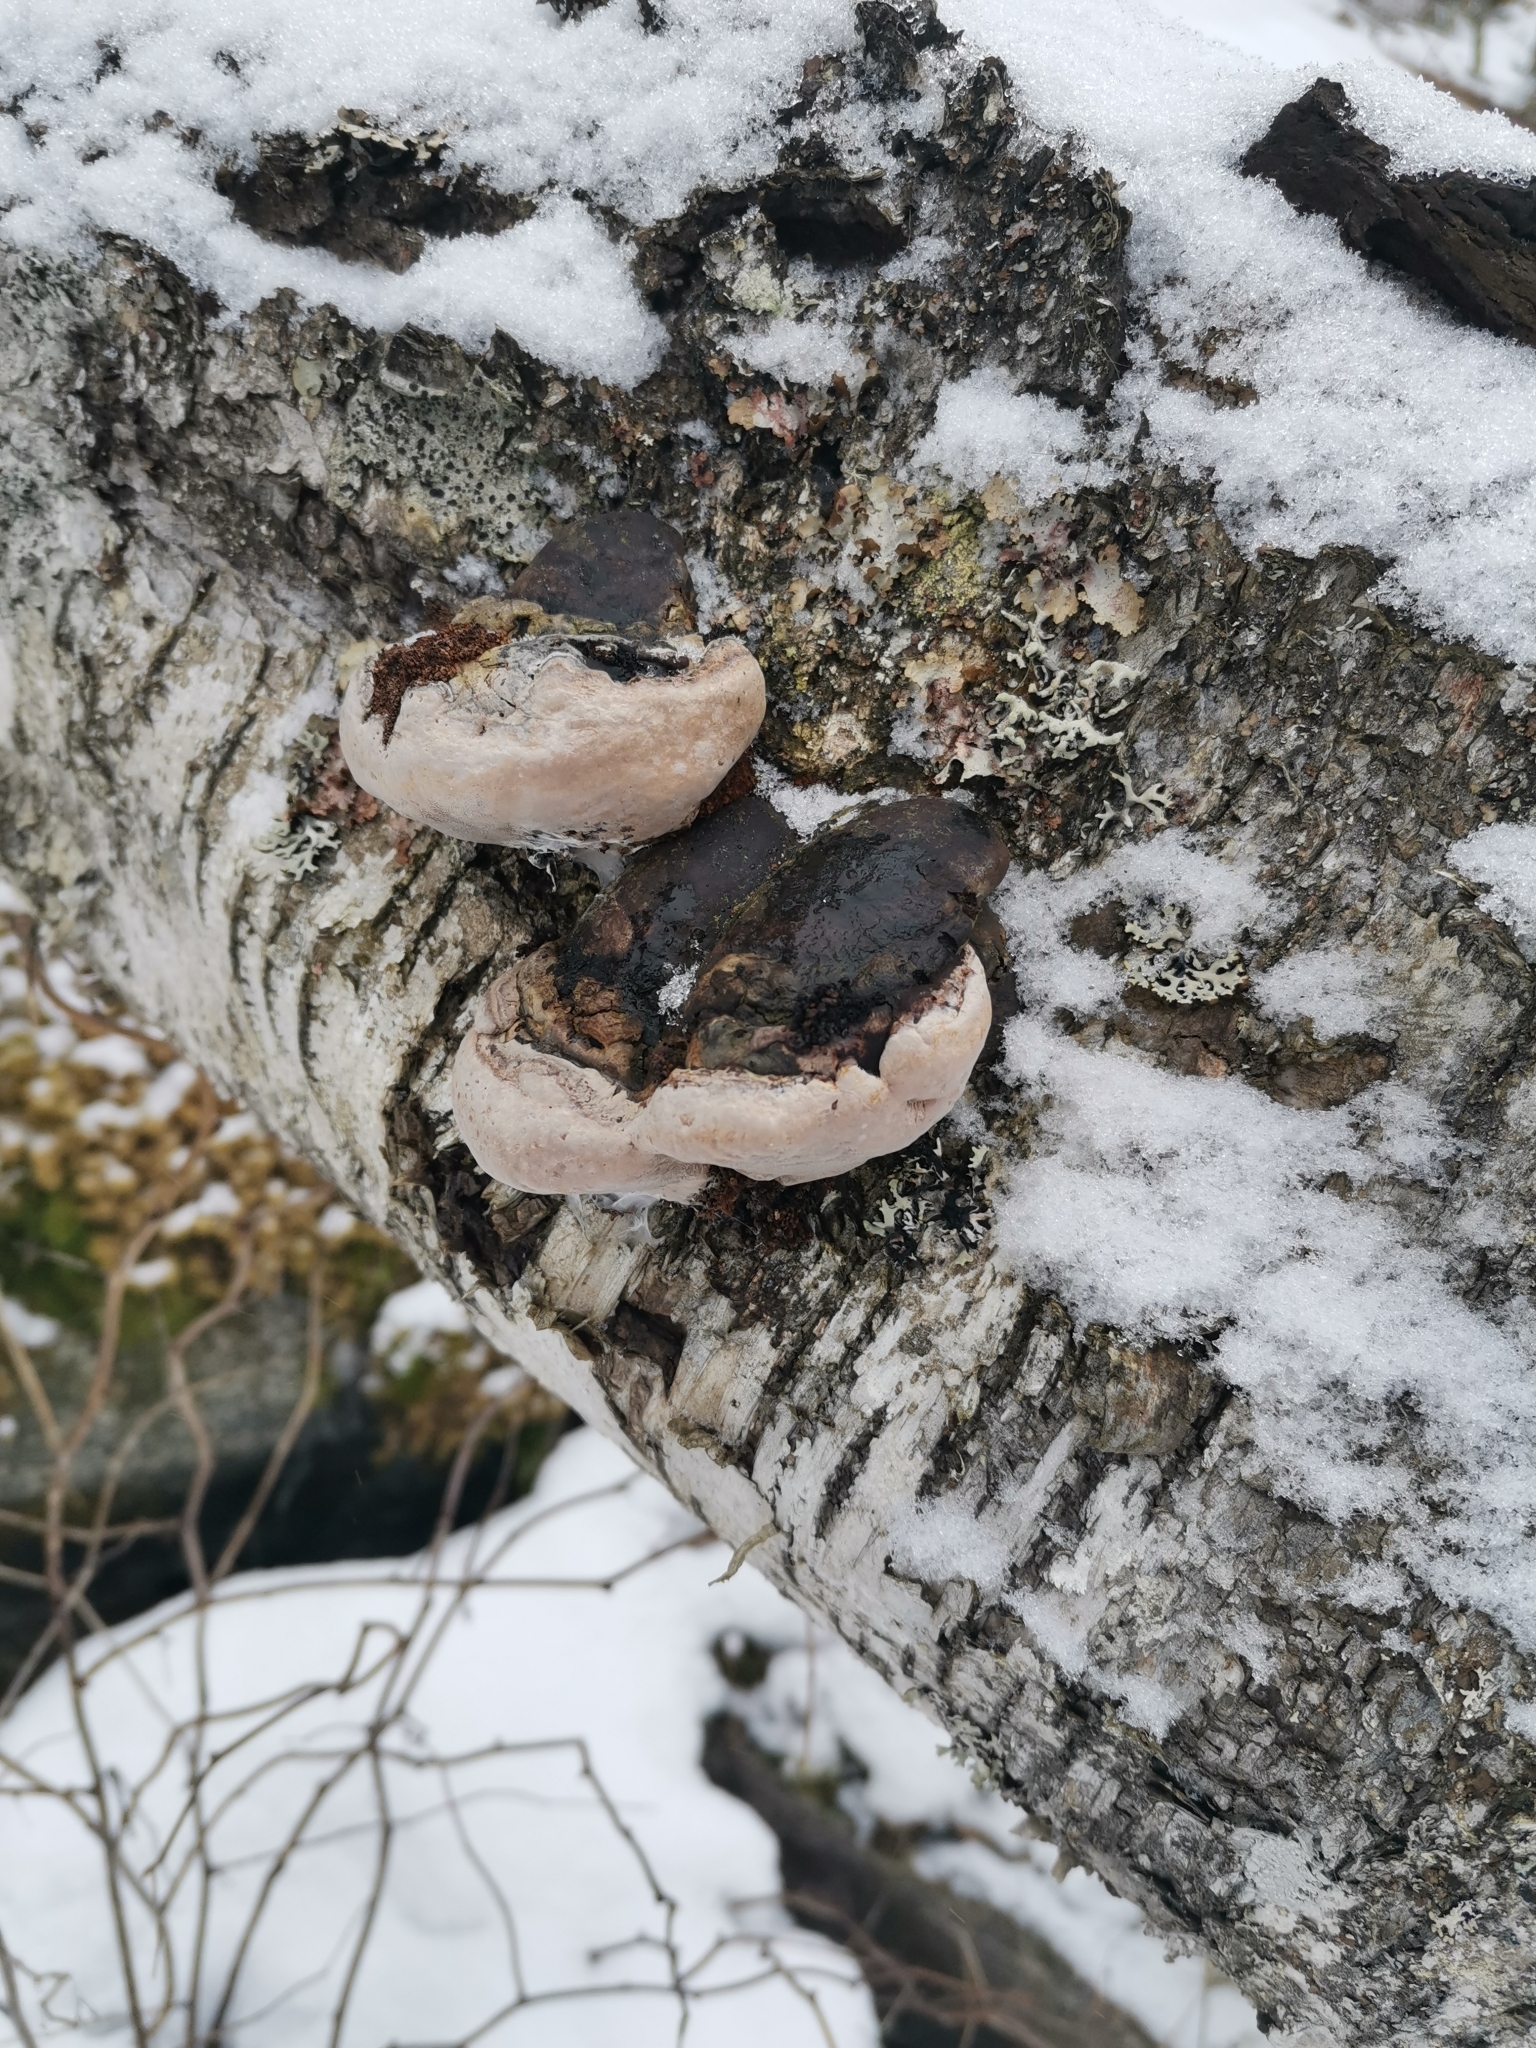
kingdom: Fungi
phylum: Basidiomycota
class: Agaricomycetes
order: Hymenochaetales
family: Hymenochaetaceae
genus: Phellinus
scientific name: Phellinus igniarius
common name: Willow bracket
